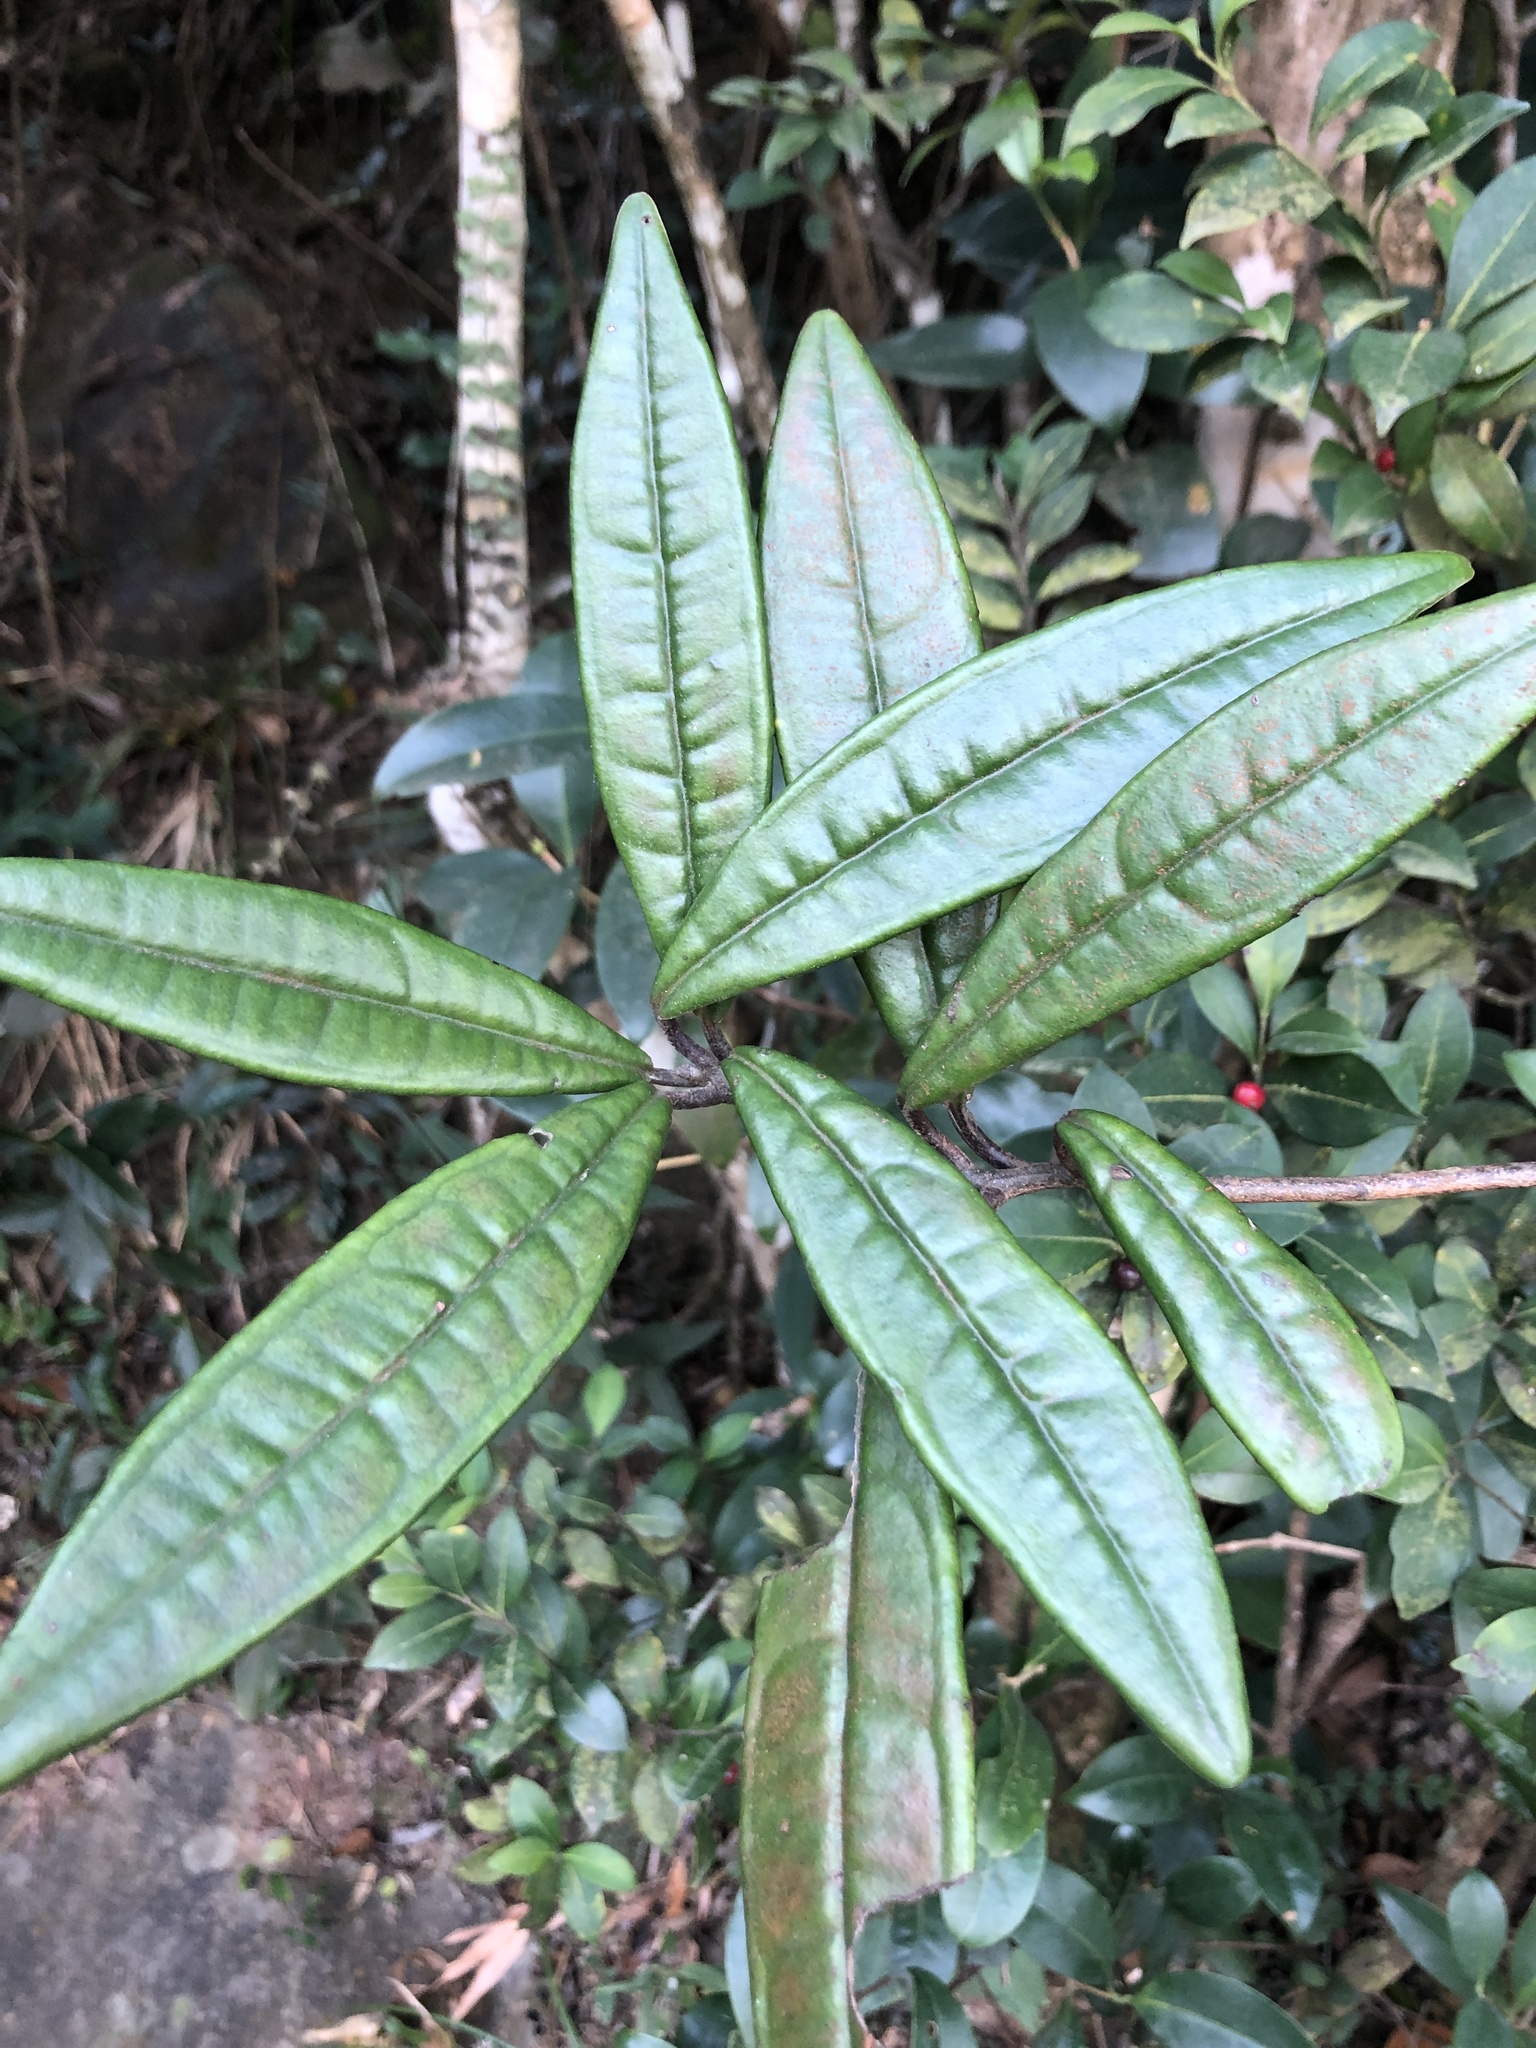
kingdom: Plantae
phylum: Tracheophyta
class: Magnoliopsida
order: Ericales
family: Primulaceae
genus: Ardisia
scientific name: Ardisia lindleyana
